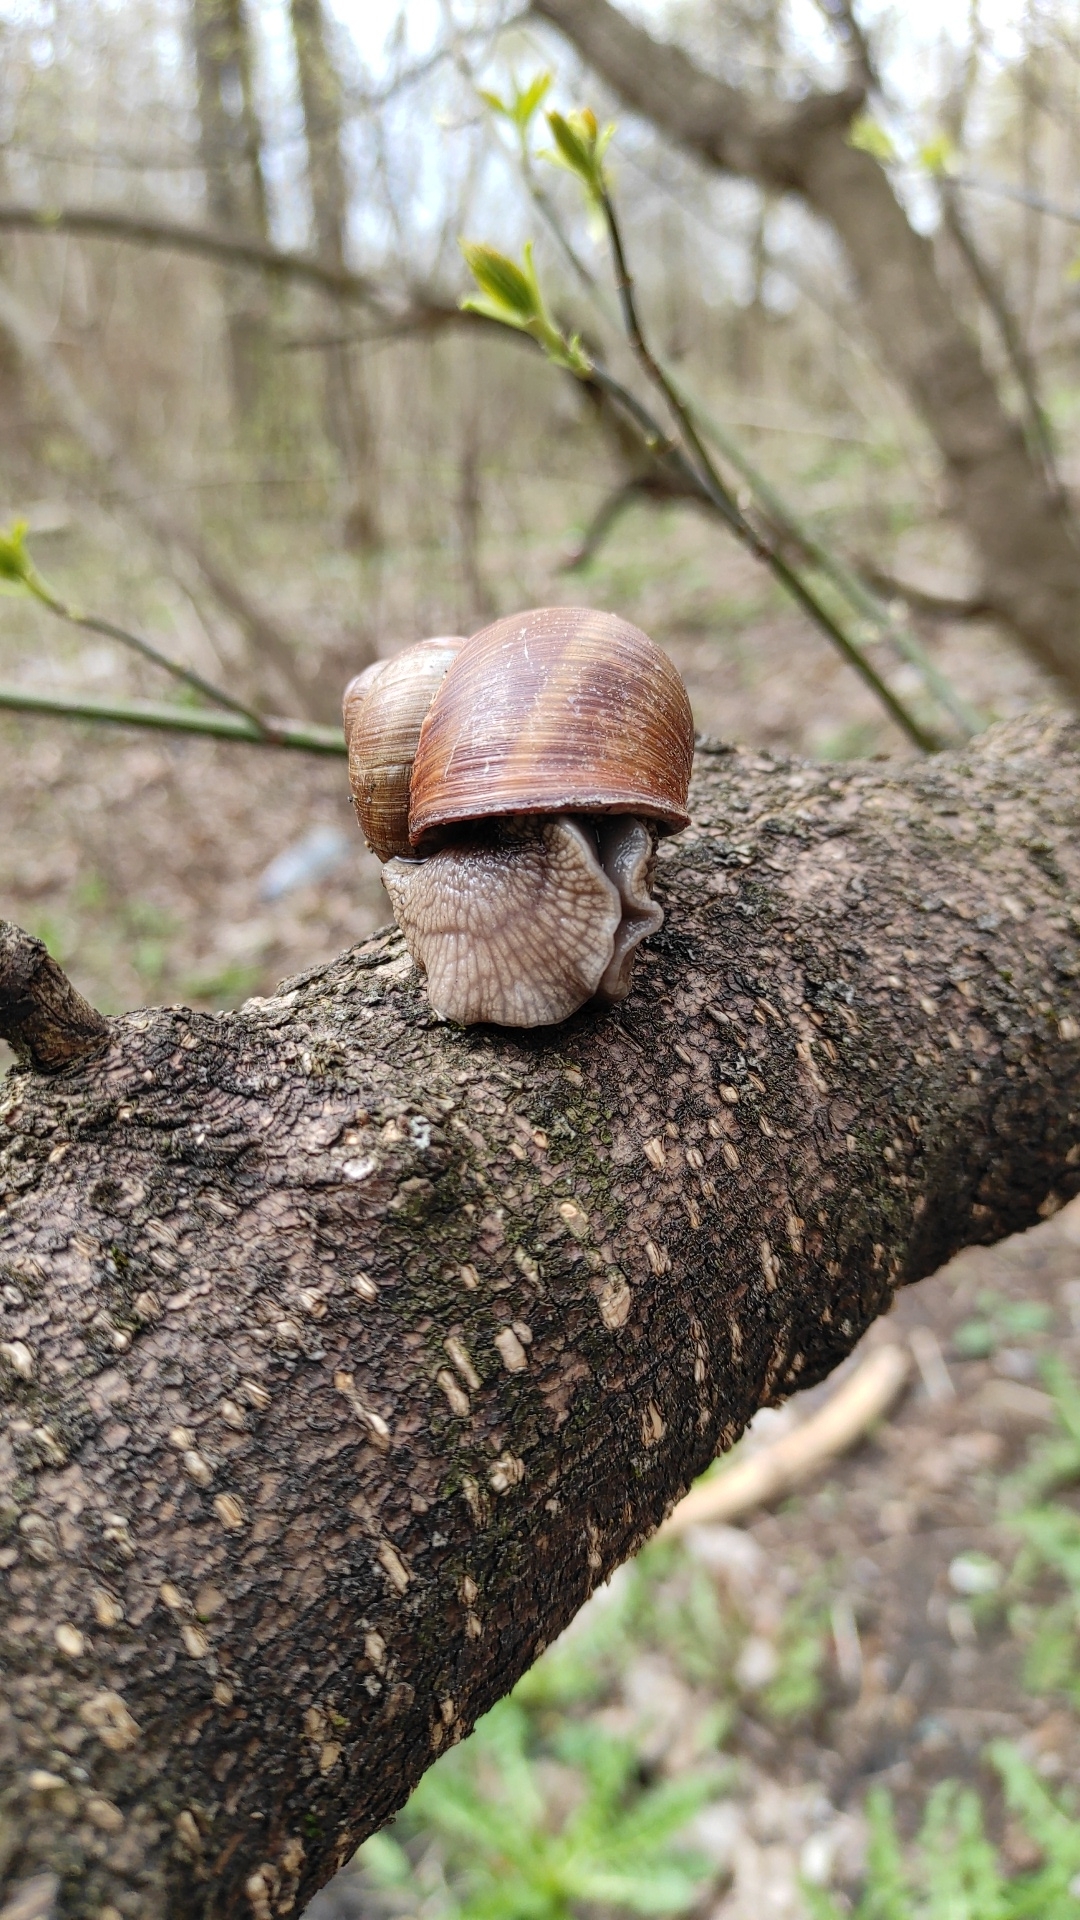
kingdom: Animalia
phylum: Mollusca
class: Gastropoda
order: Stylommatophora
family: Helicidae
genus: Helix
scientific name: Helix pomatia
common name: Roman snail
